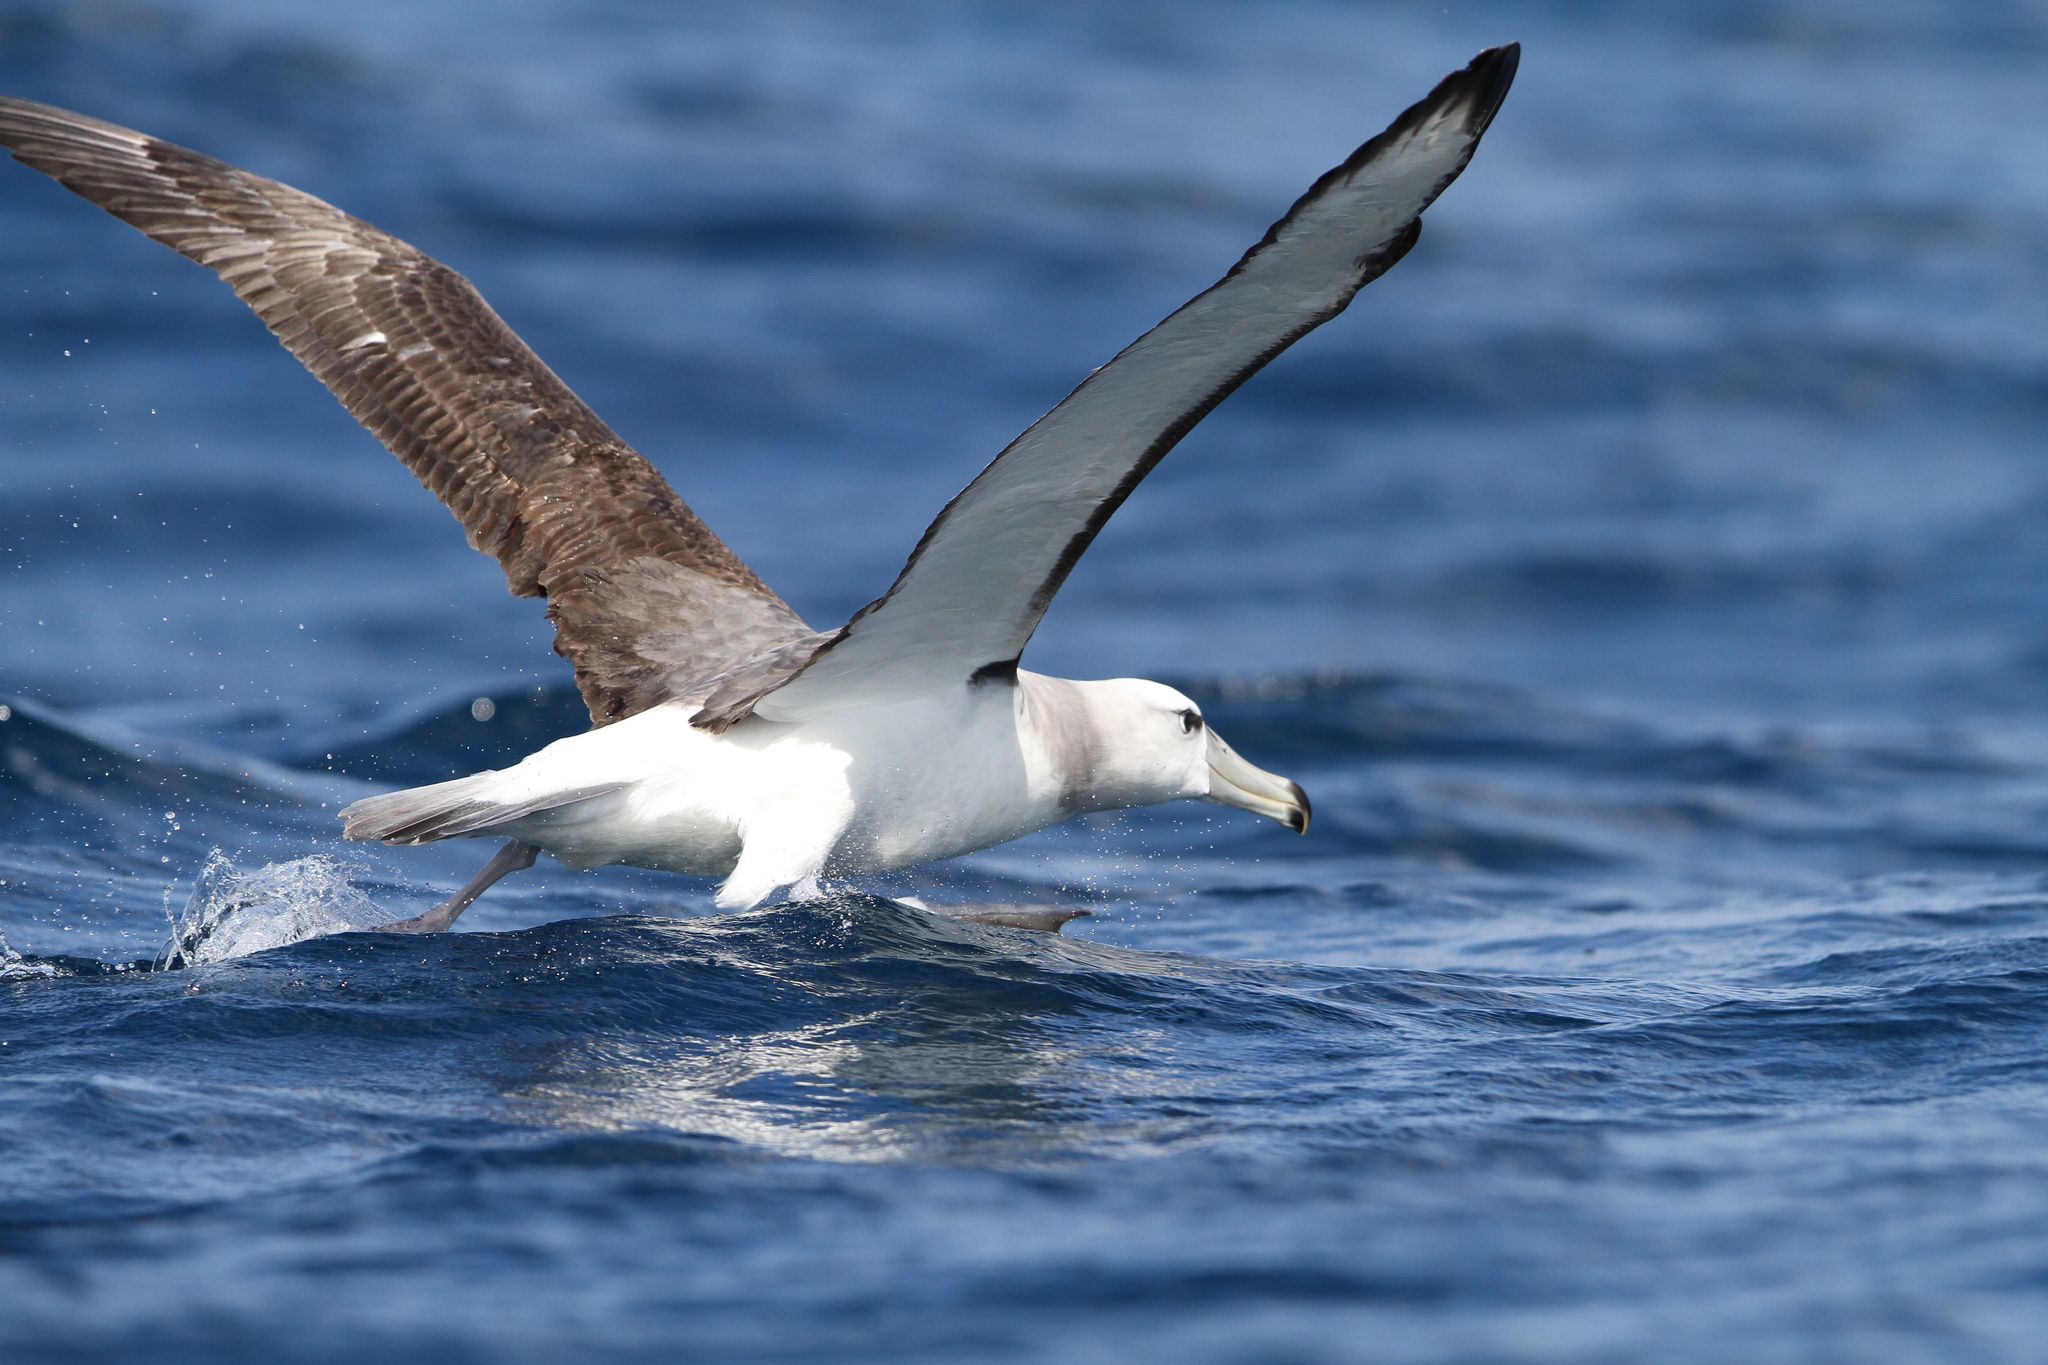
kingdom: Animalia
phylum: Chordata
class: Aves
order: Procellariiformes
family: Diomedeidae
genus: Thalassarche
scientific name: Thalassarche cauta
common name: Shy albatross
